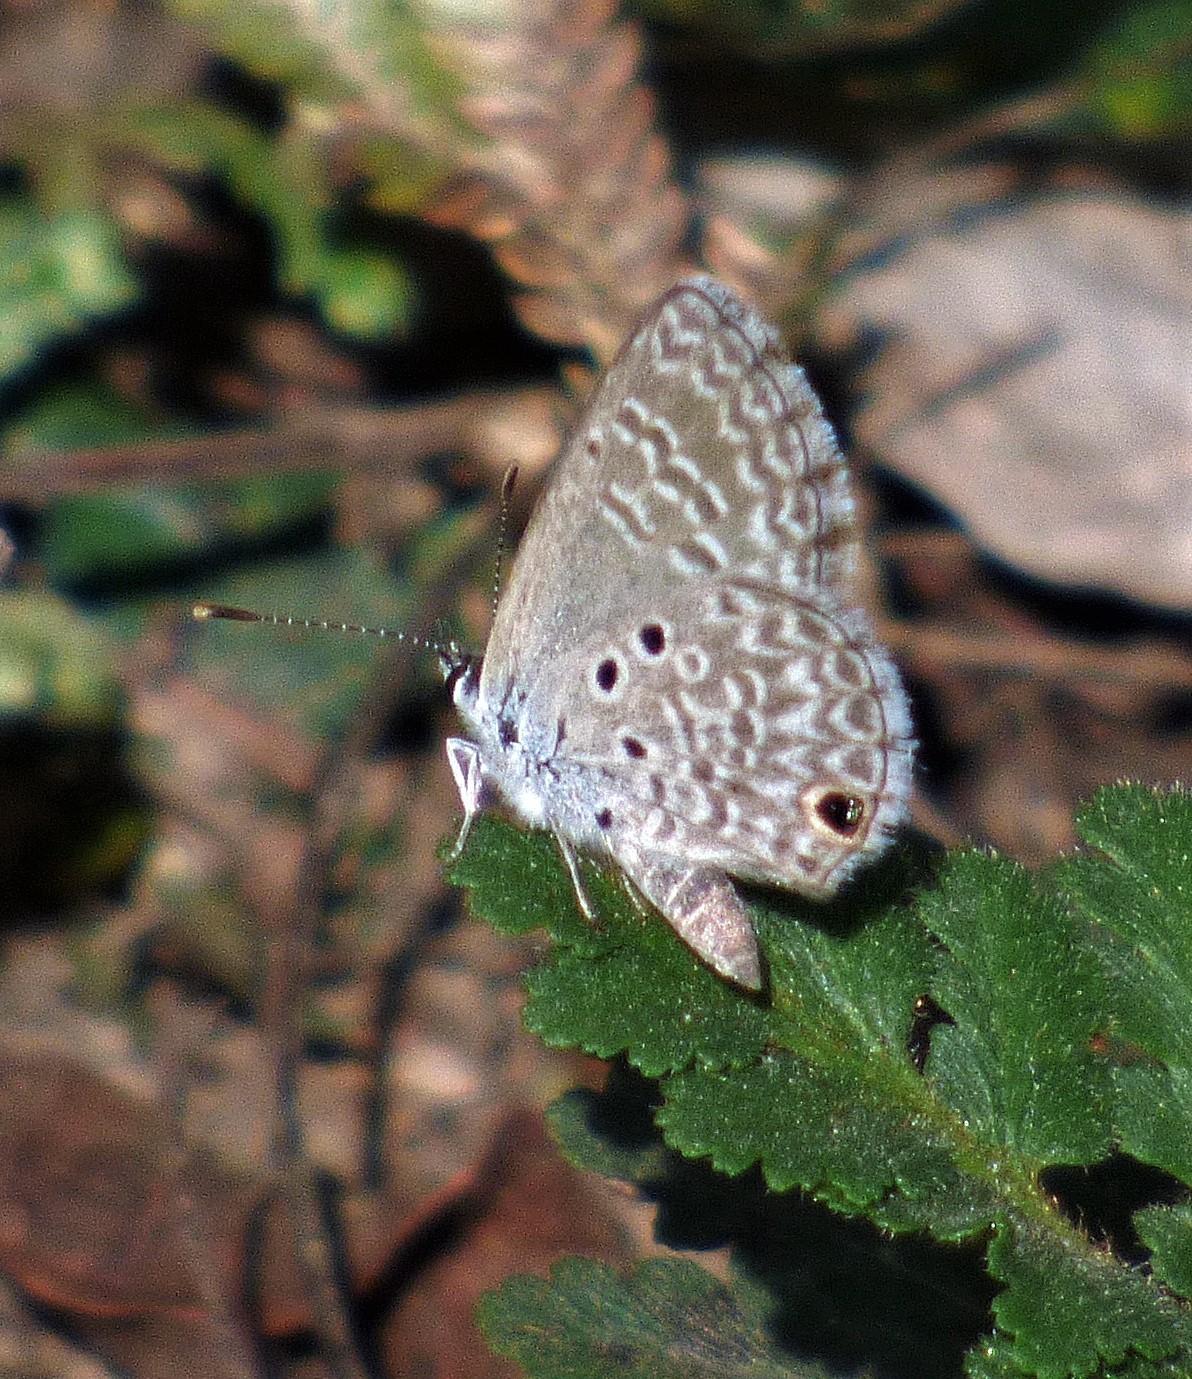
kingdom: Animalia
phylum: Arthropoda
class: Insecta
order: Lepidoptera
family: Lycaenidae
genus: Hemiargus
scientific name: Hemiargus hanno
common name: Common blue
